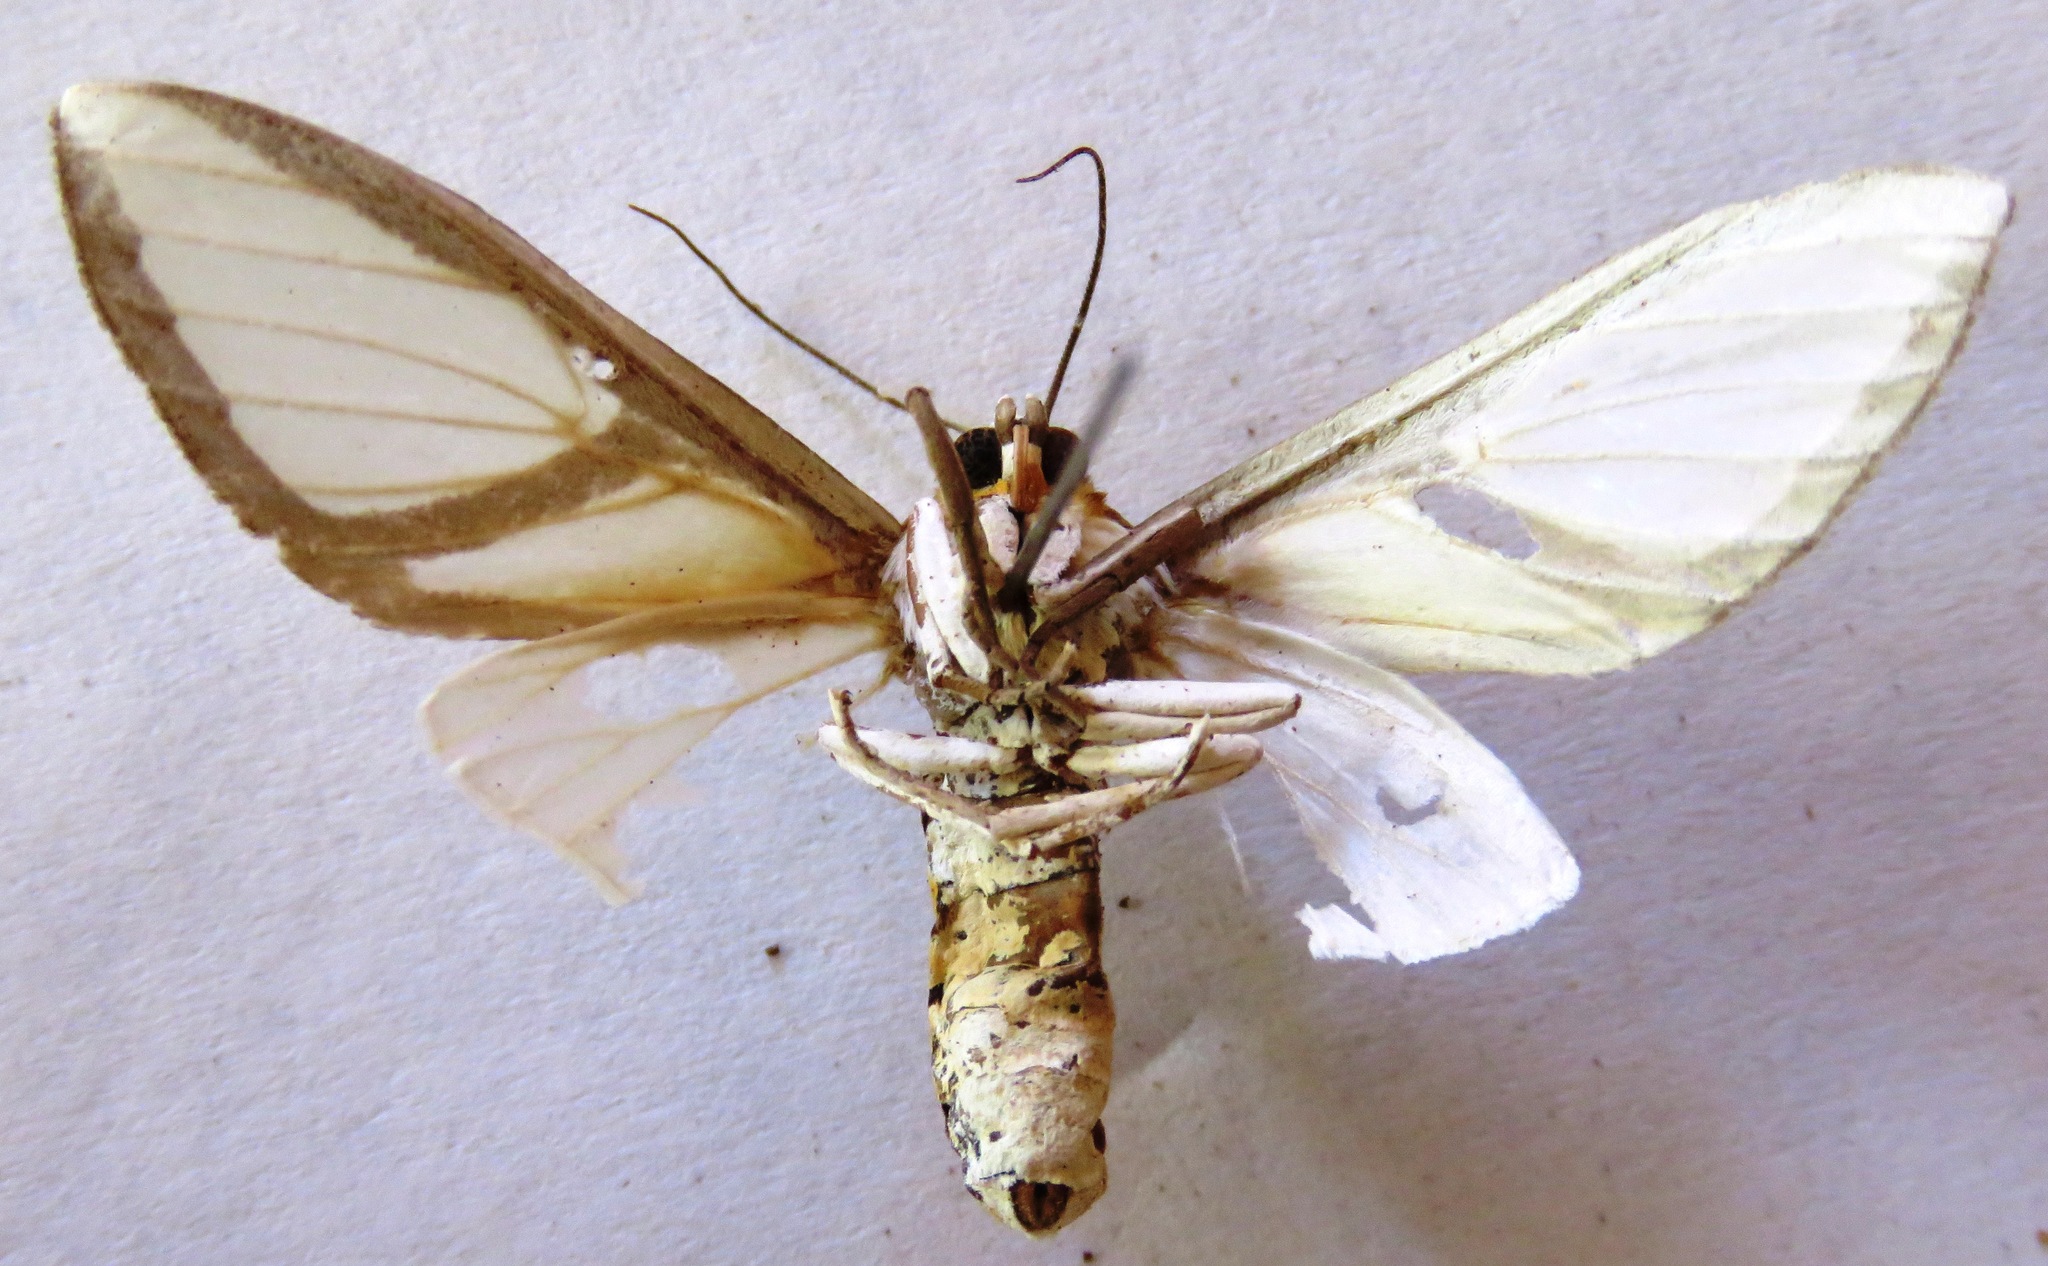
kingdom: Animalia
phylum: Arthropoda
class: Insecta
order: Lepidoptera
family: Erebidae
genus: Robinsonia
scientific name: Robinsonia dewitzi
